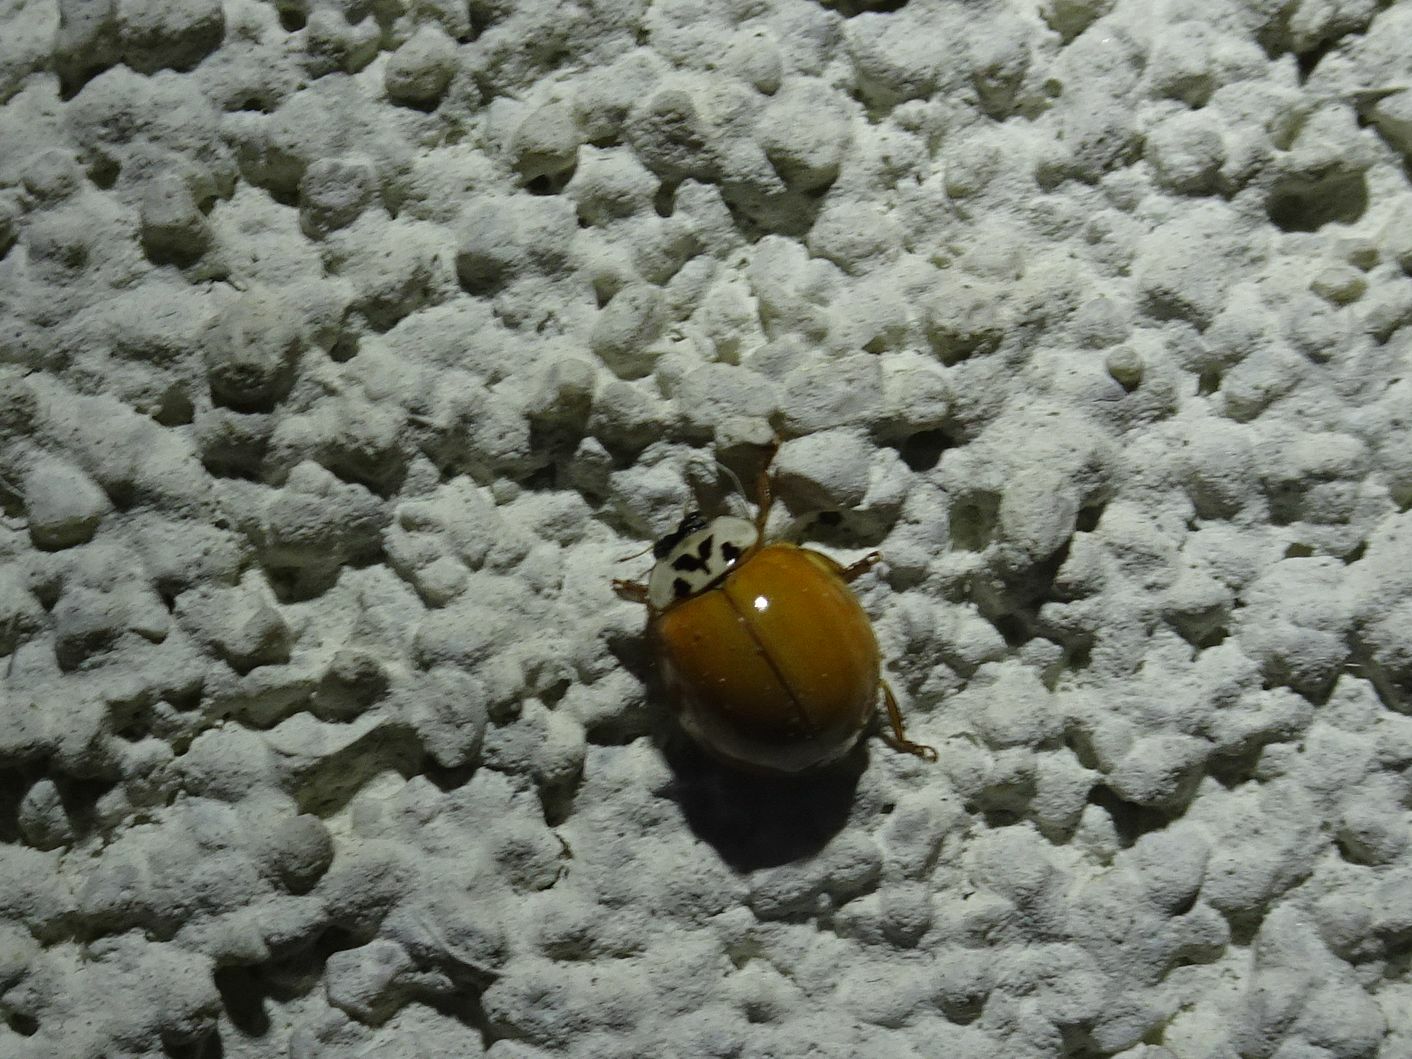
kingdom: Animalia
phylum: Arthropoda
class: Insecta
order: Coleoptera
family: Coccinellidae
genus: Harmonia
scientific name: Harmonia axyridis
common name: Harlequin ladybird
